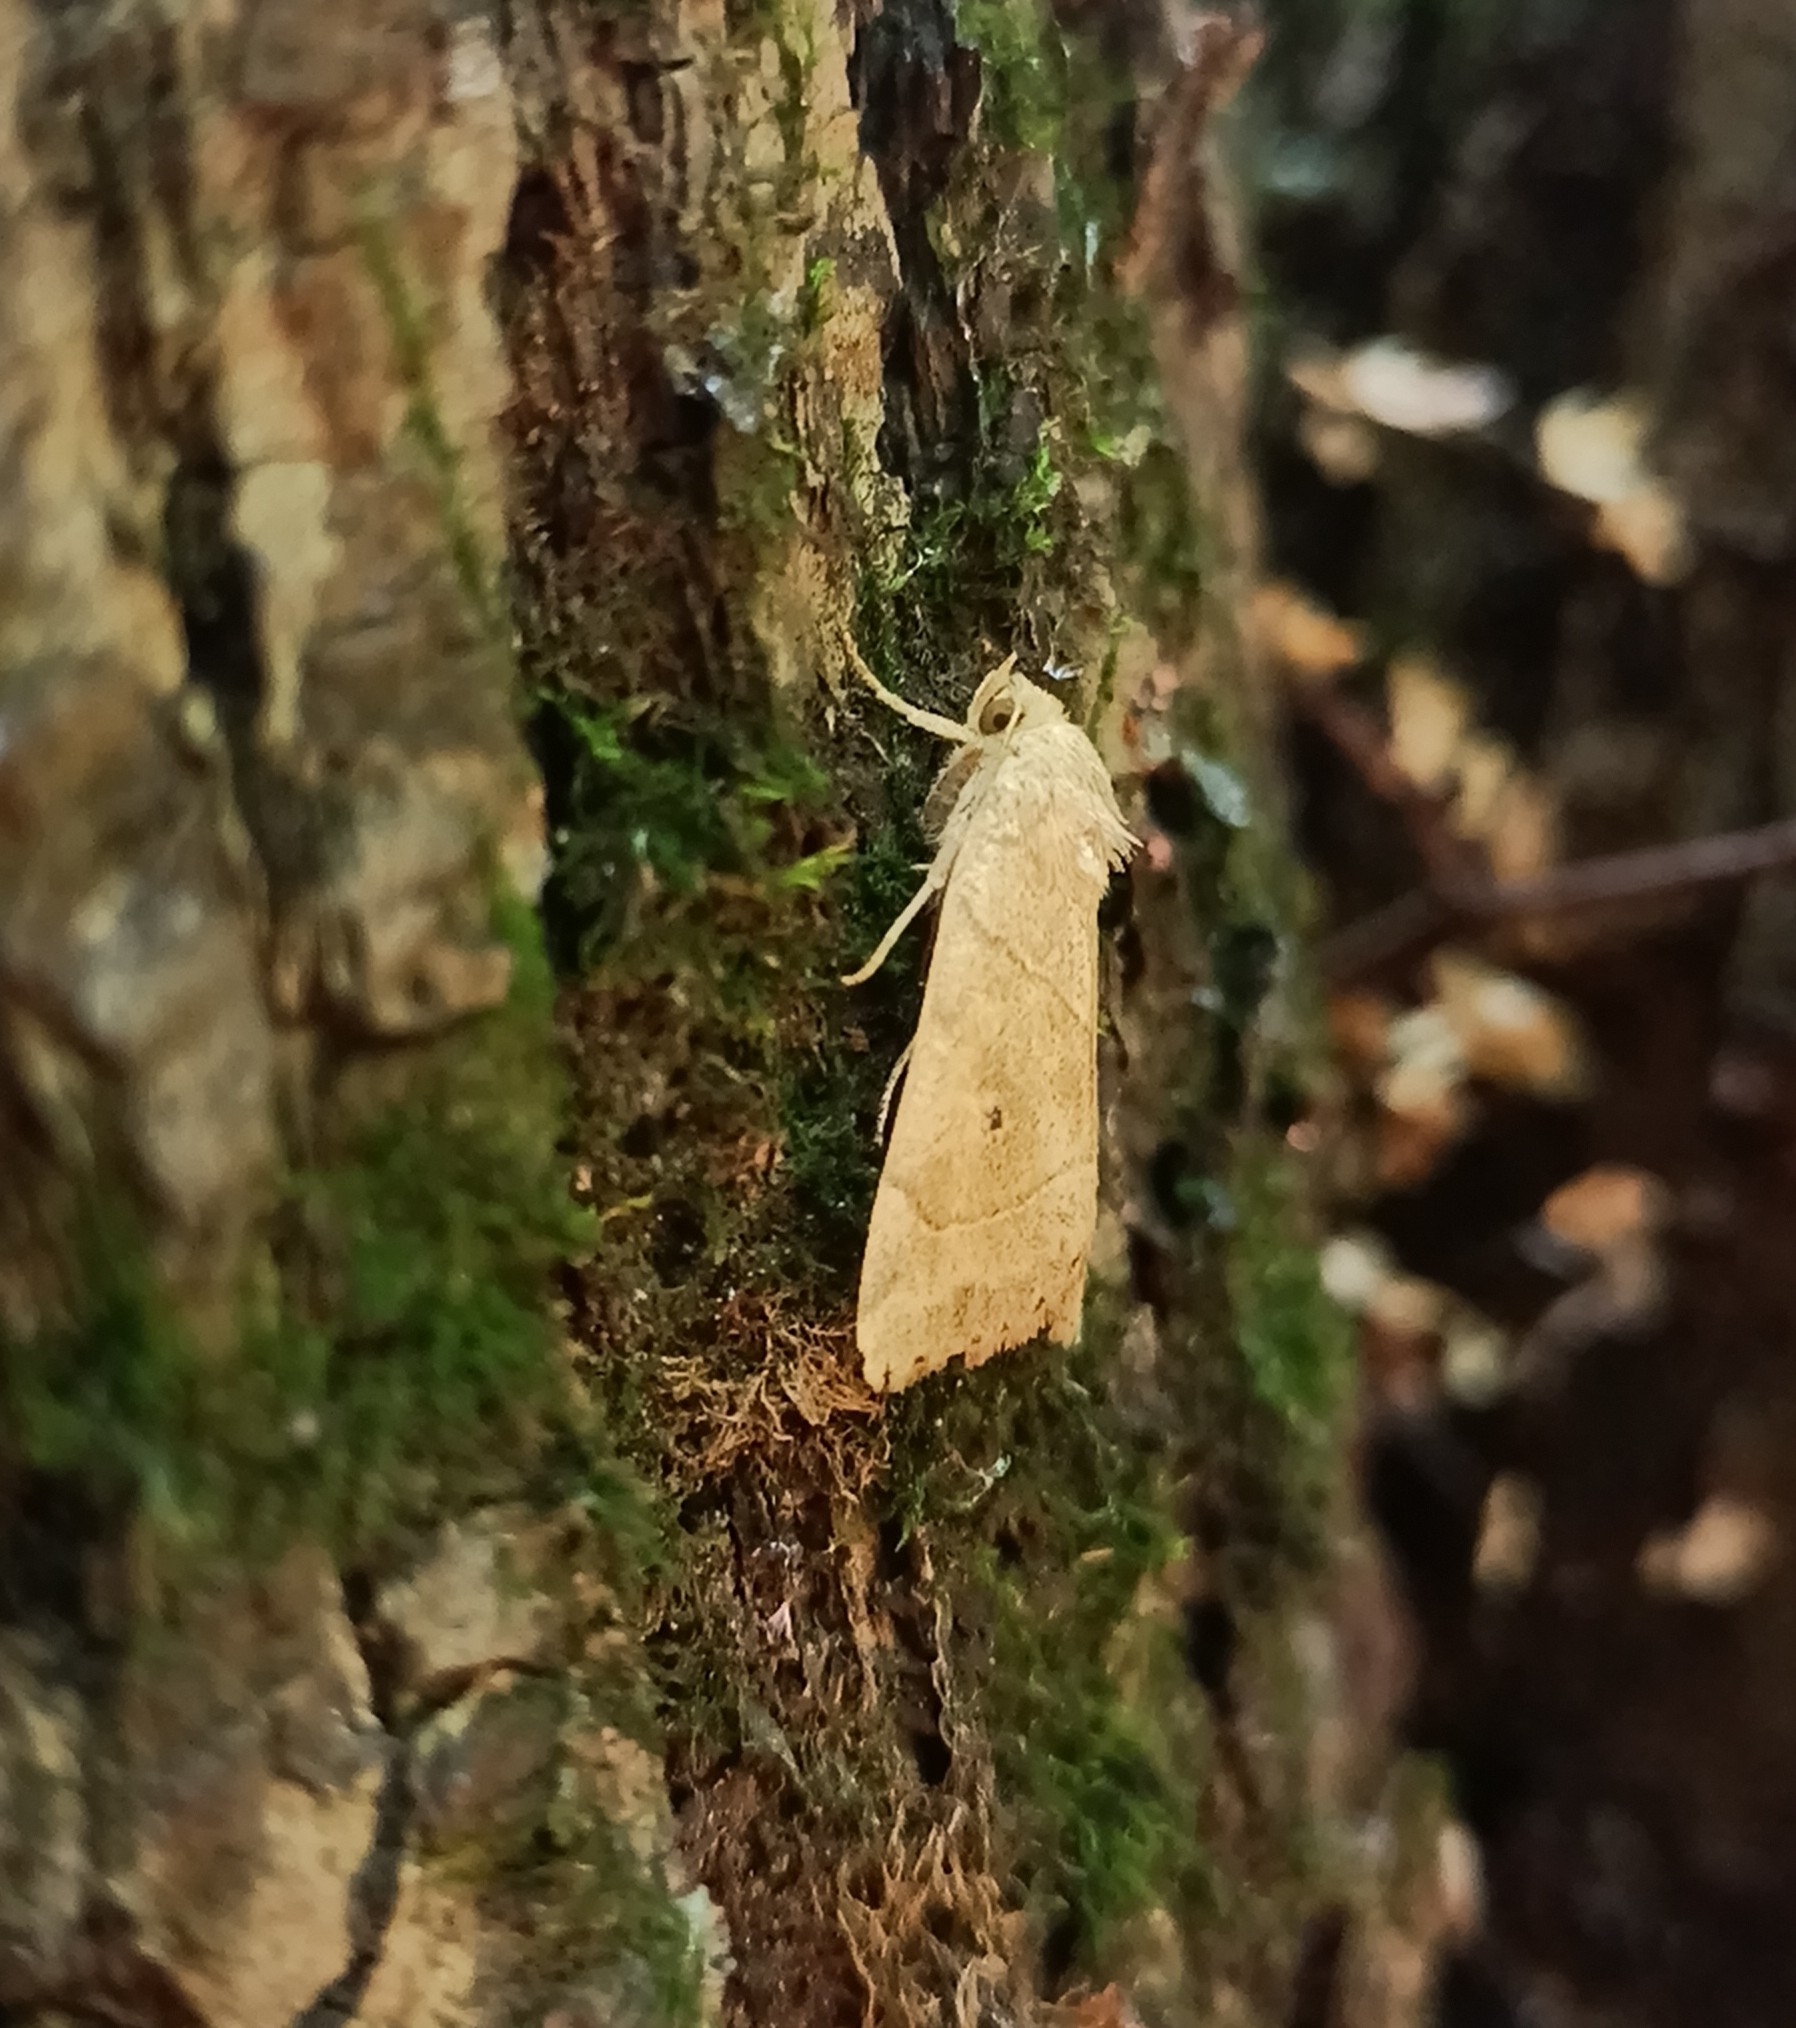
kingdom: Animalia
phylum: Arthropoda
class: Insecta
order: Lepidoptera
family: Noctuidae
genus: Cosmia
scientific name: Cosmia trapezina
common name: Dun-bar
